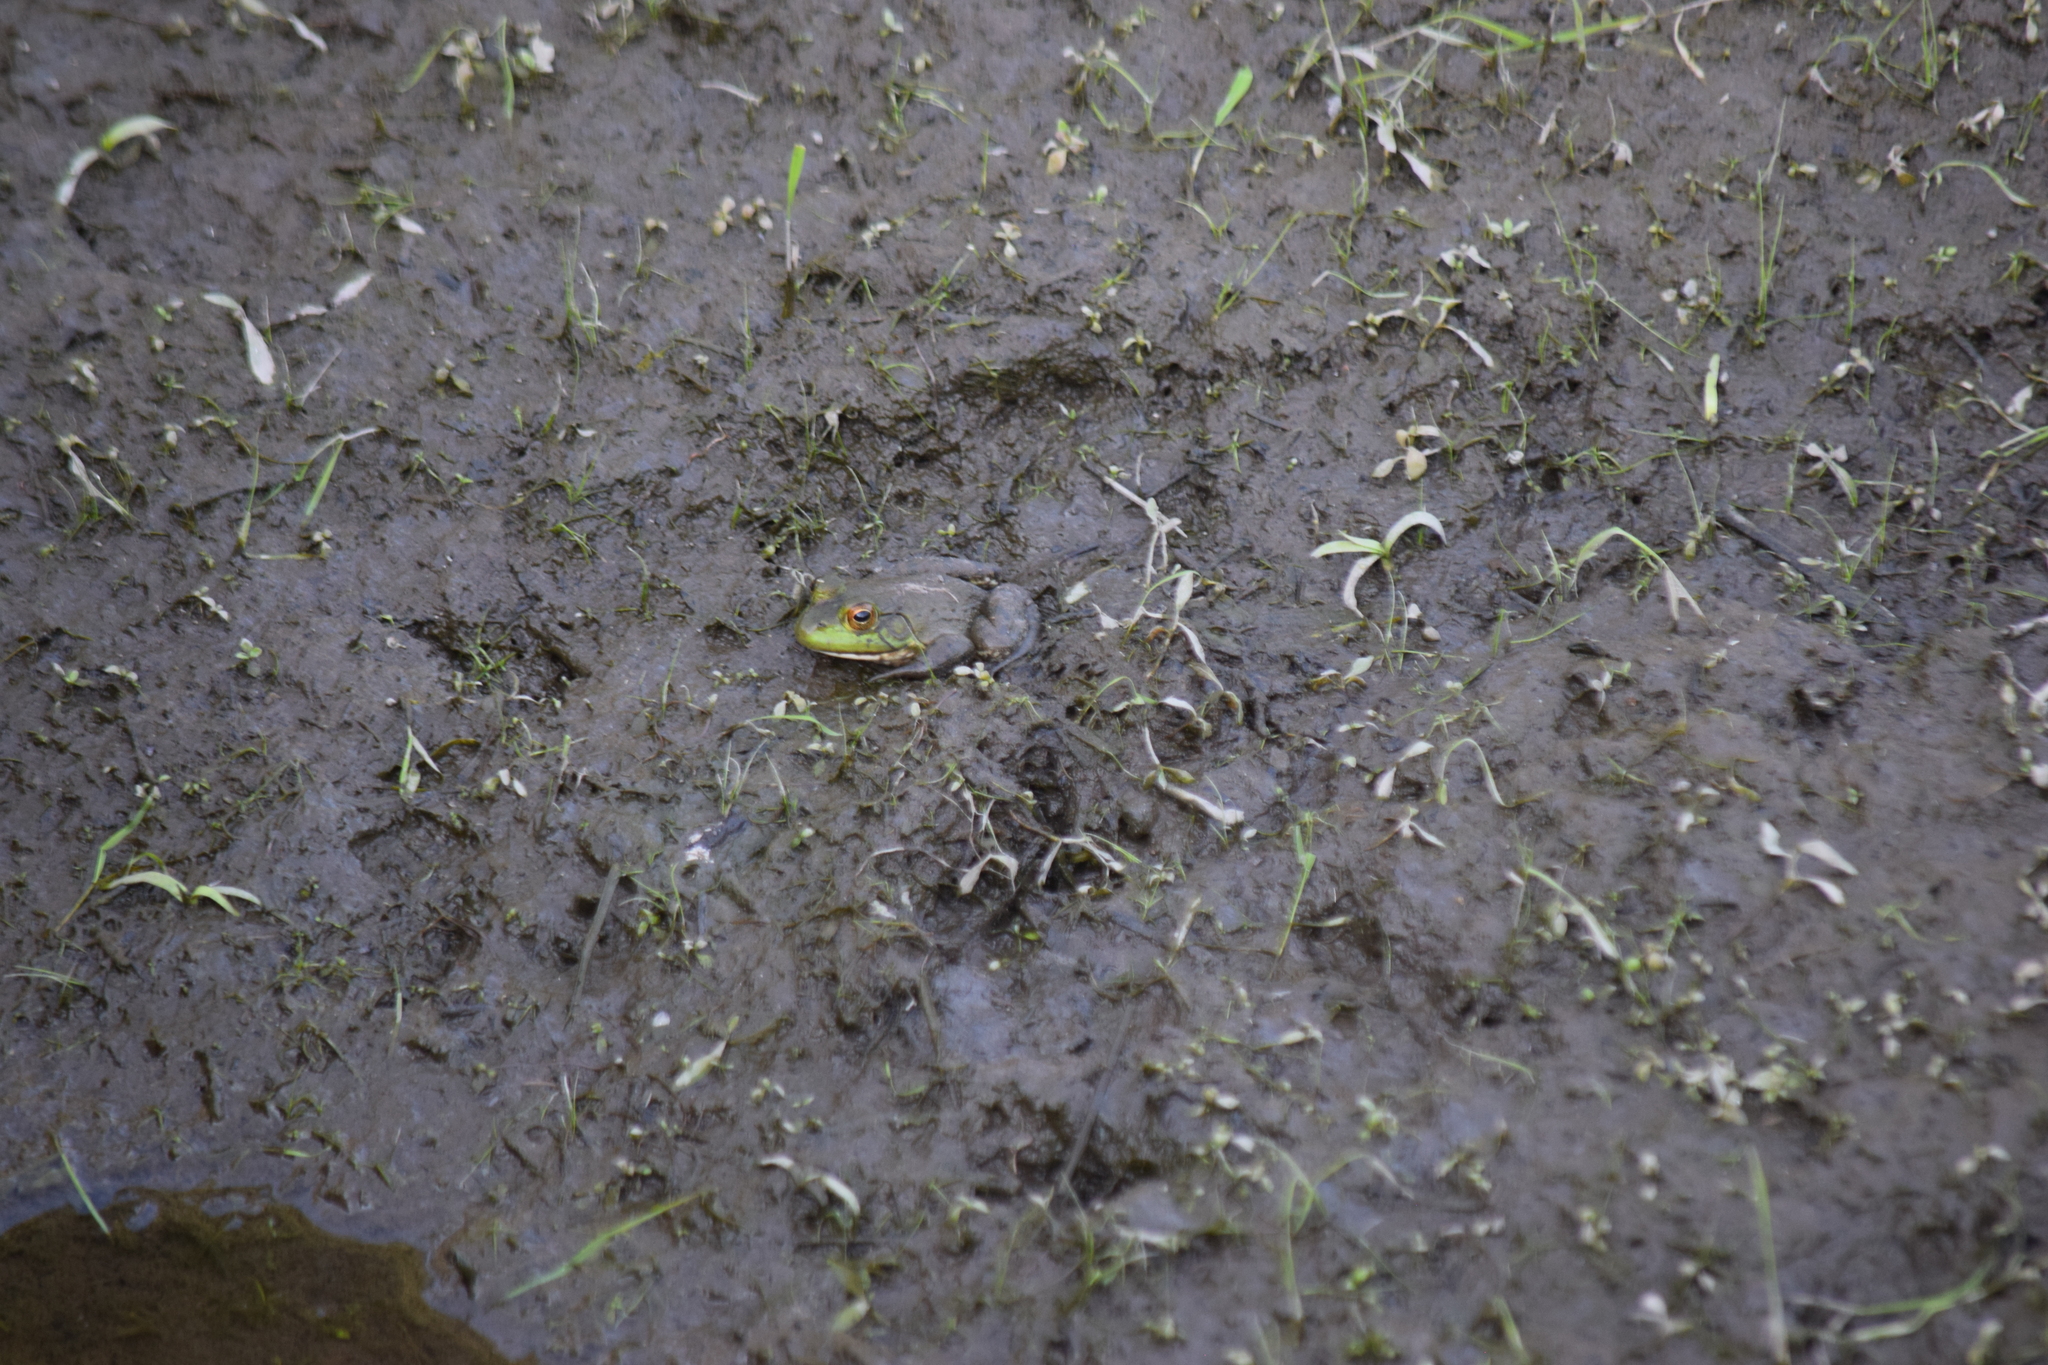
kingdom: Animalia
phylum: Chordata
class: Amphibia
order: Anura
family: Ranidae
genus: Lithobates
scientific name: Lithobates catesbeianus
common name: American bullfrog
